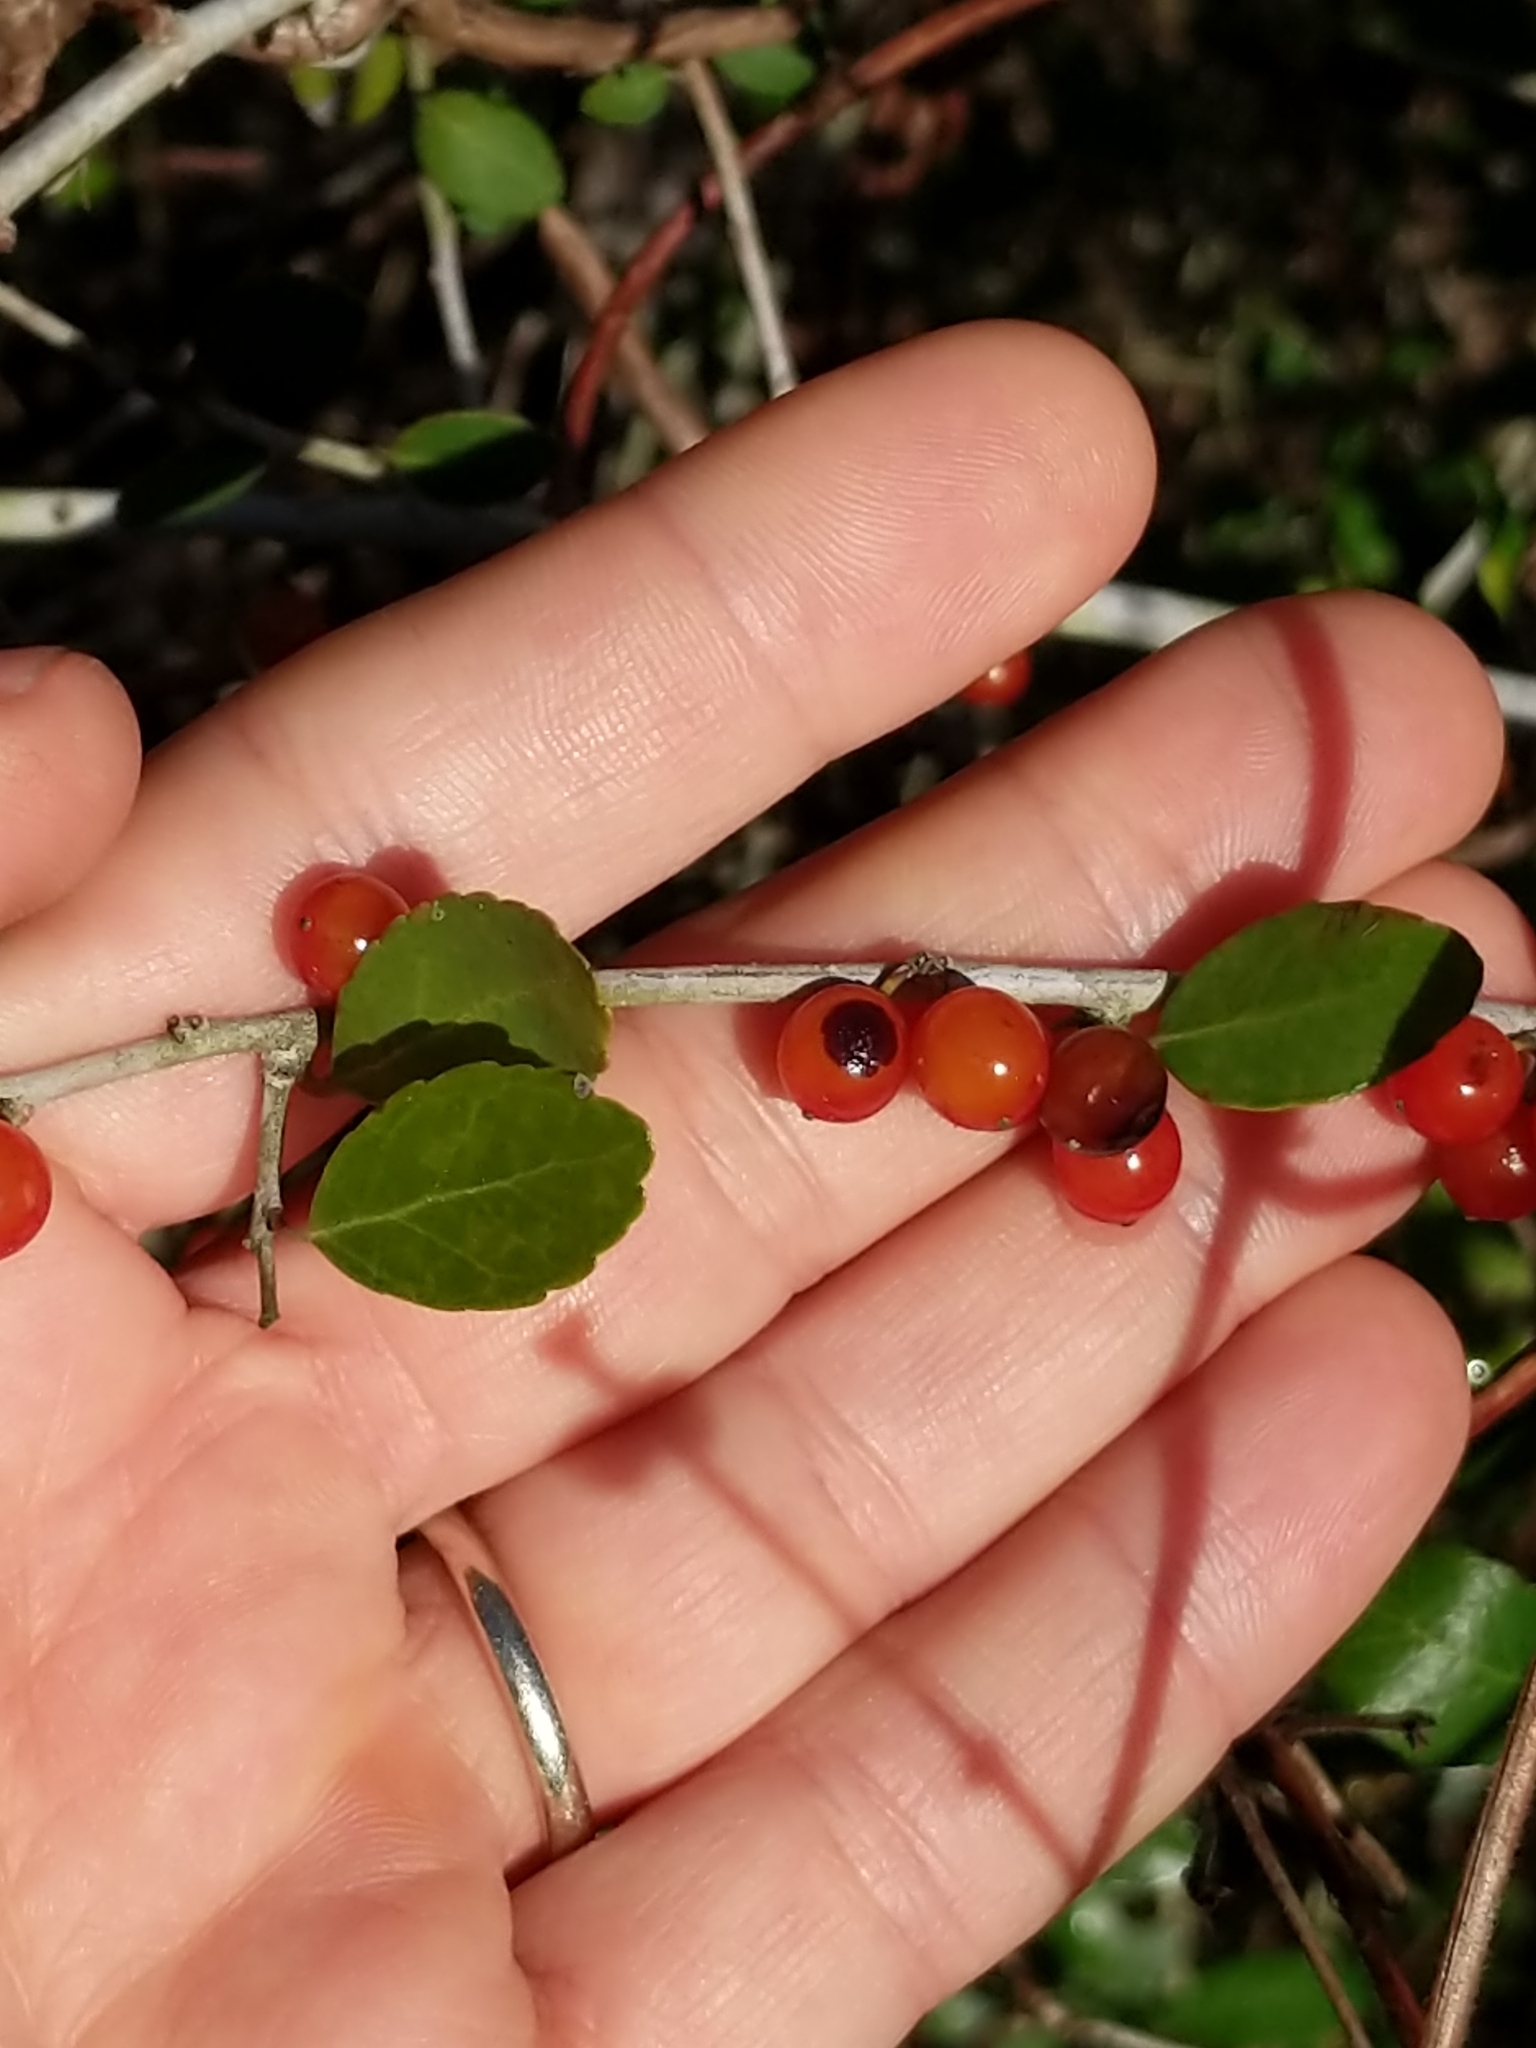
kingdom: Plantae
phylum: Tracheophyta
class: Magnoliopsida
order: Aquifoliales
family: Aquifoliaceae
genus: Ilex
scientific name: Ilex vomitoria
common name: Yaupon holly
